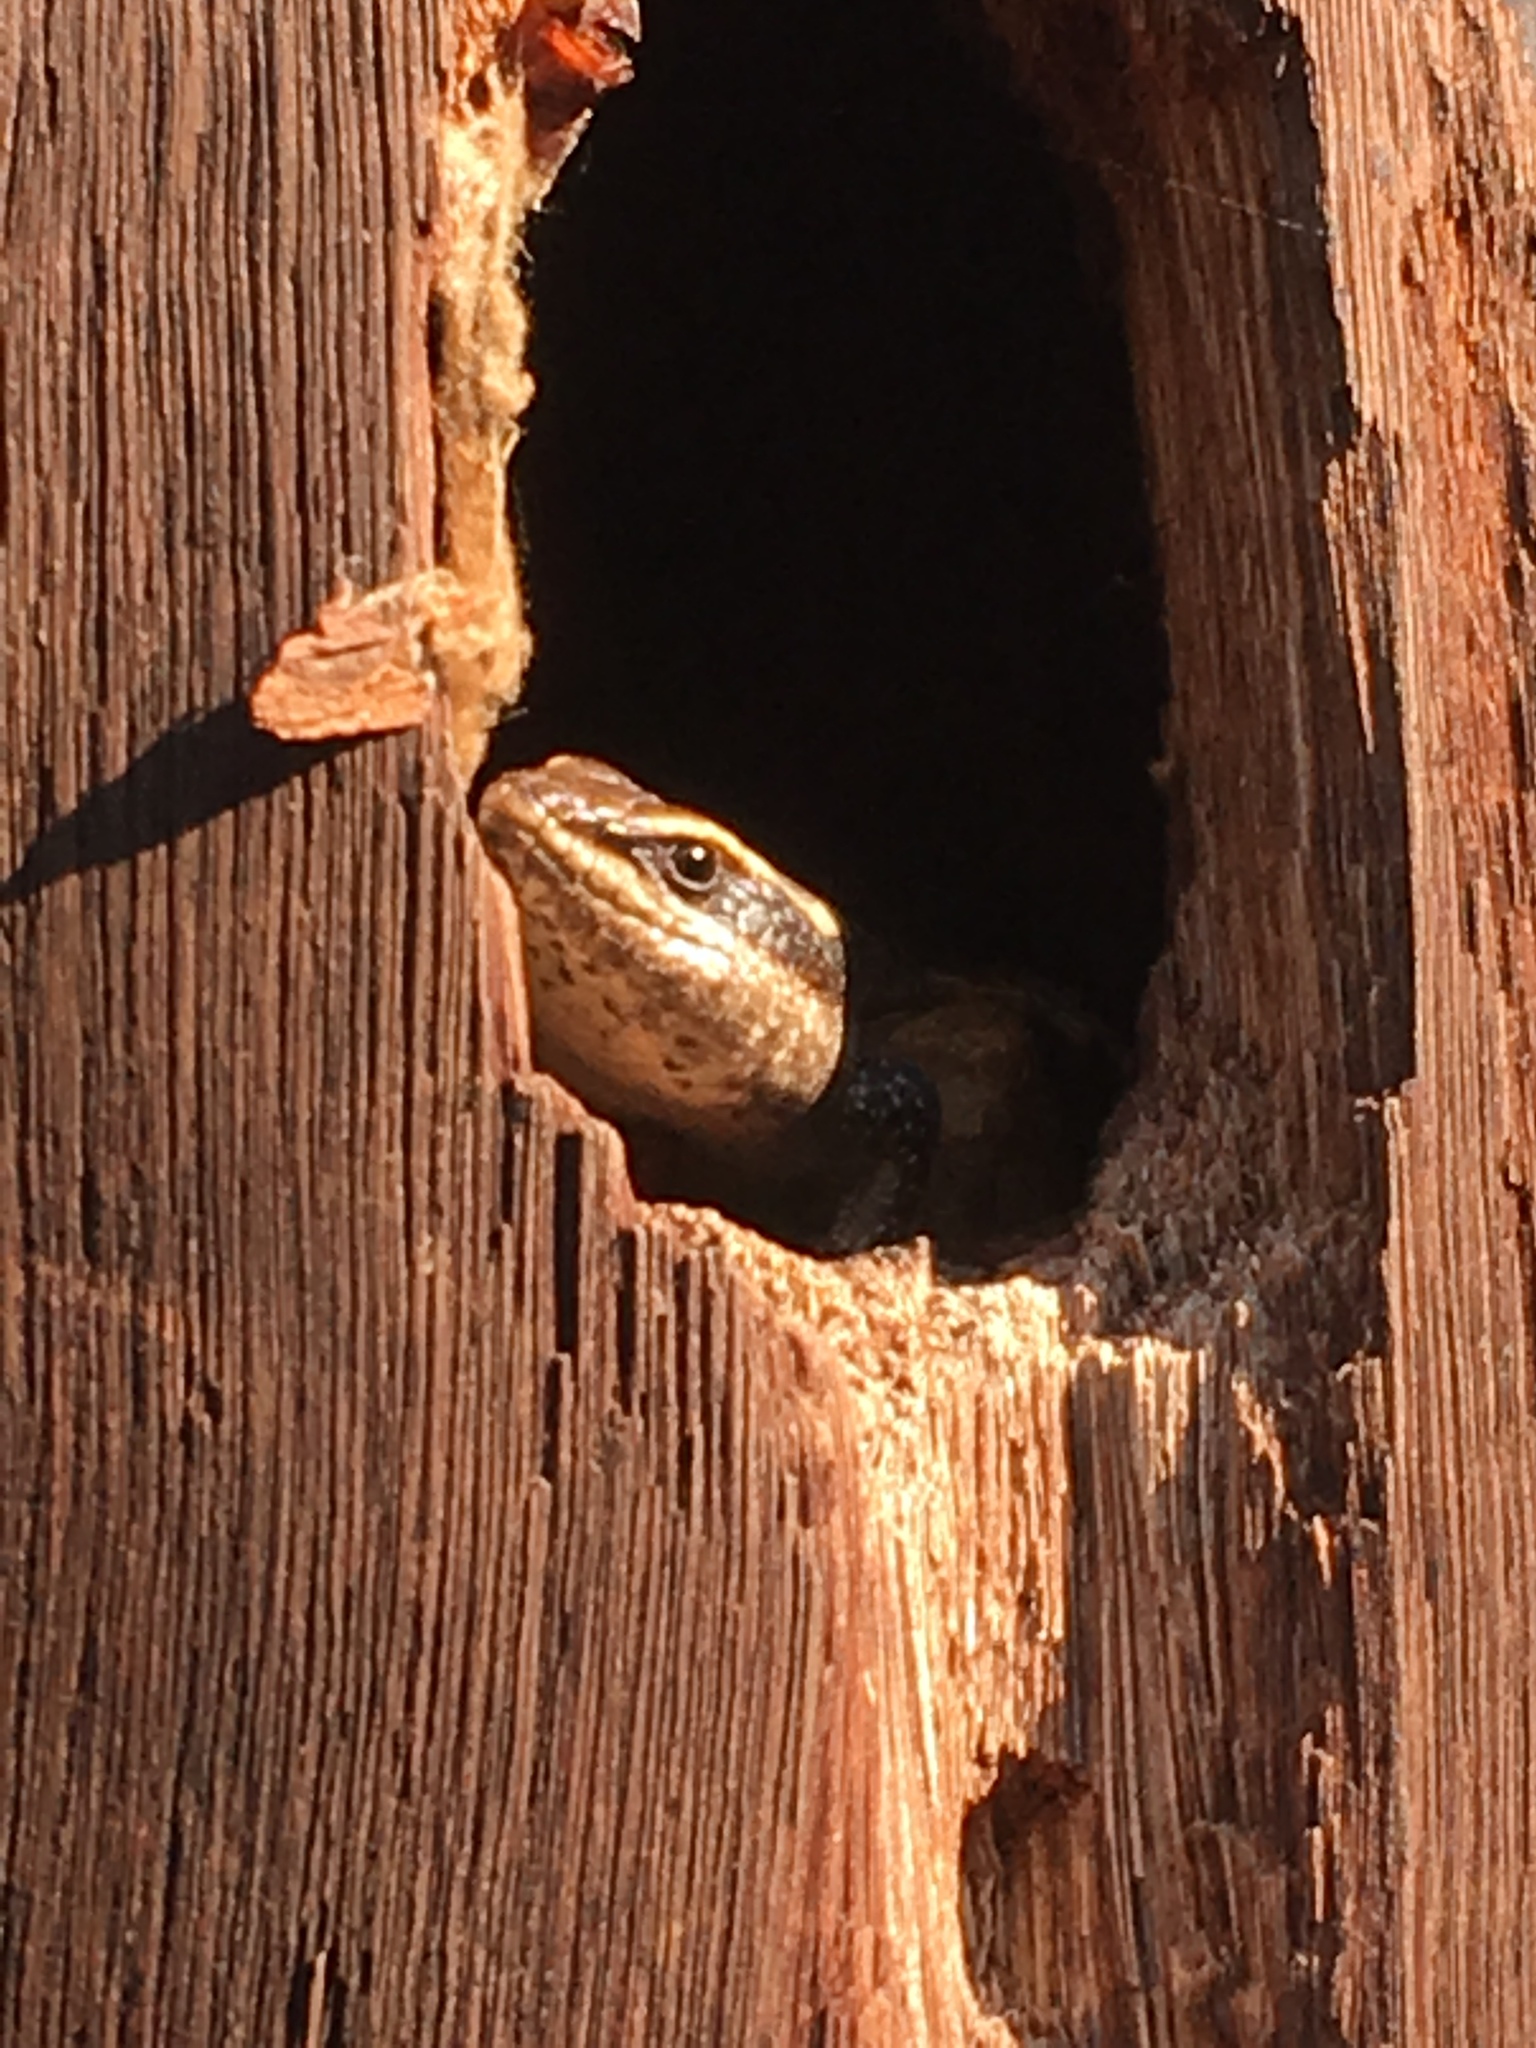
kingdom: Animalia
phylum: Chordata
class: Squamata
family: Scincidae
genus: Trachylepis
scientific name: Trachylepis striata
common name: African striped mabuya
